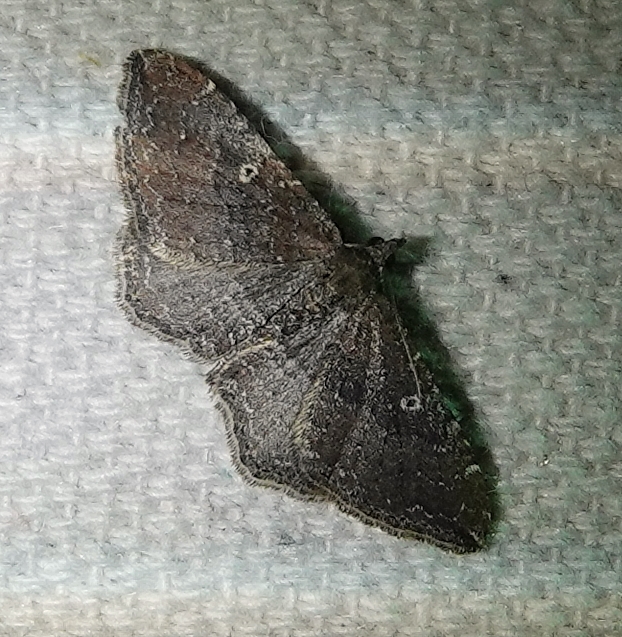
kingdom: Animalia
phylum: Arthropoda
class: Insecta
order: Lepidoptera
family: Geometridae
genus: Orthonama
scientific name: Orthonama obstipata
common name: The gem
